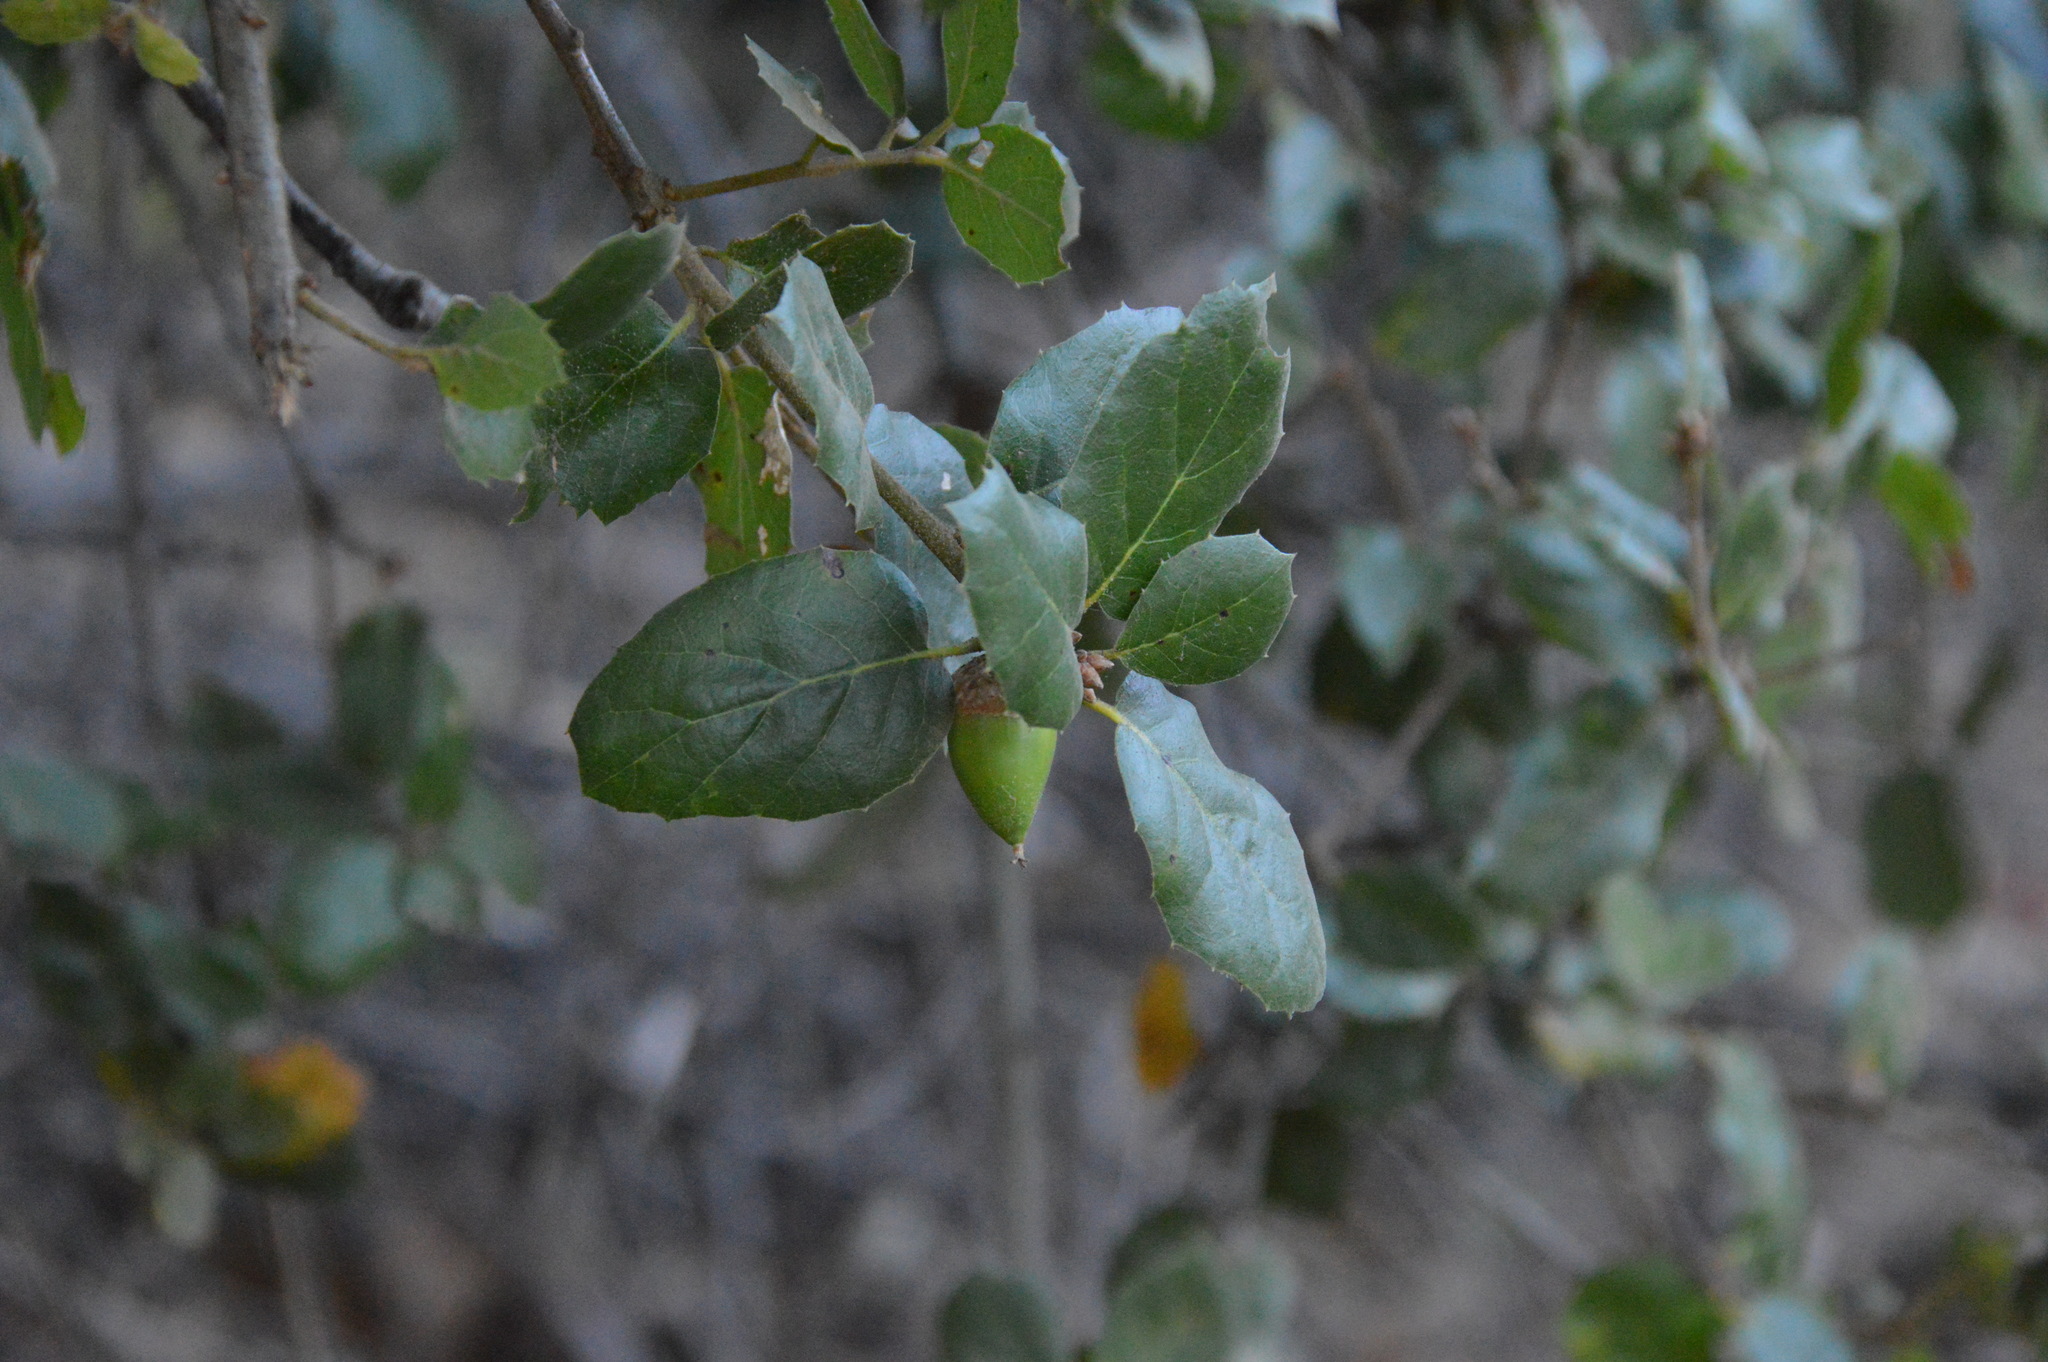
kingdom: Plantae
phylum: Tracheophyta
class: Magnoliopsida
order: Fagales
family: Fagaceae
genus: Quercus
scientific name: Quercus agrifolia
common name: California live oak
